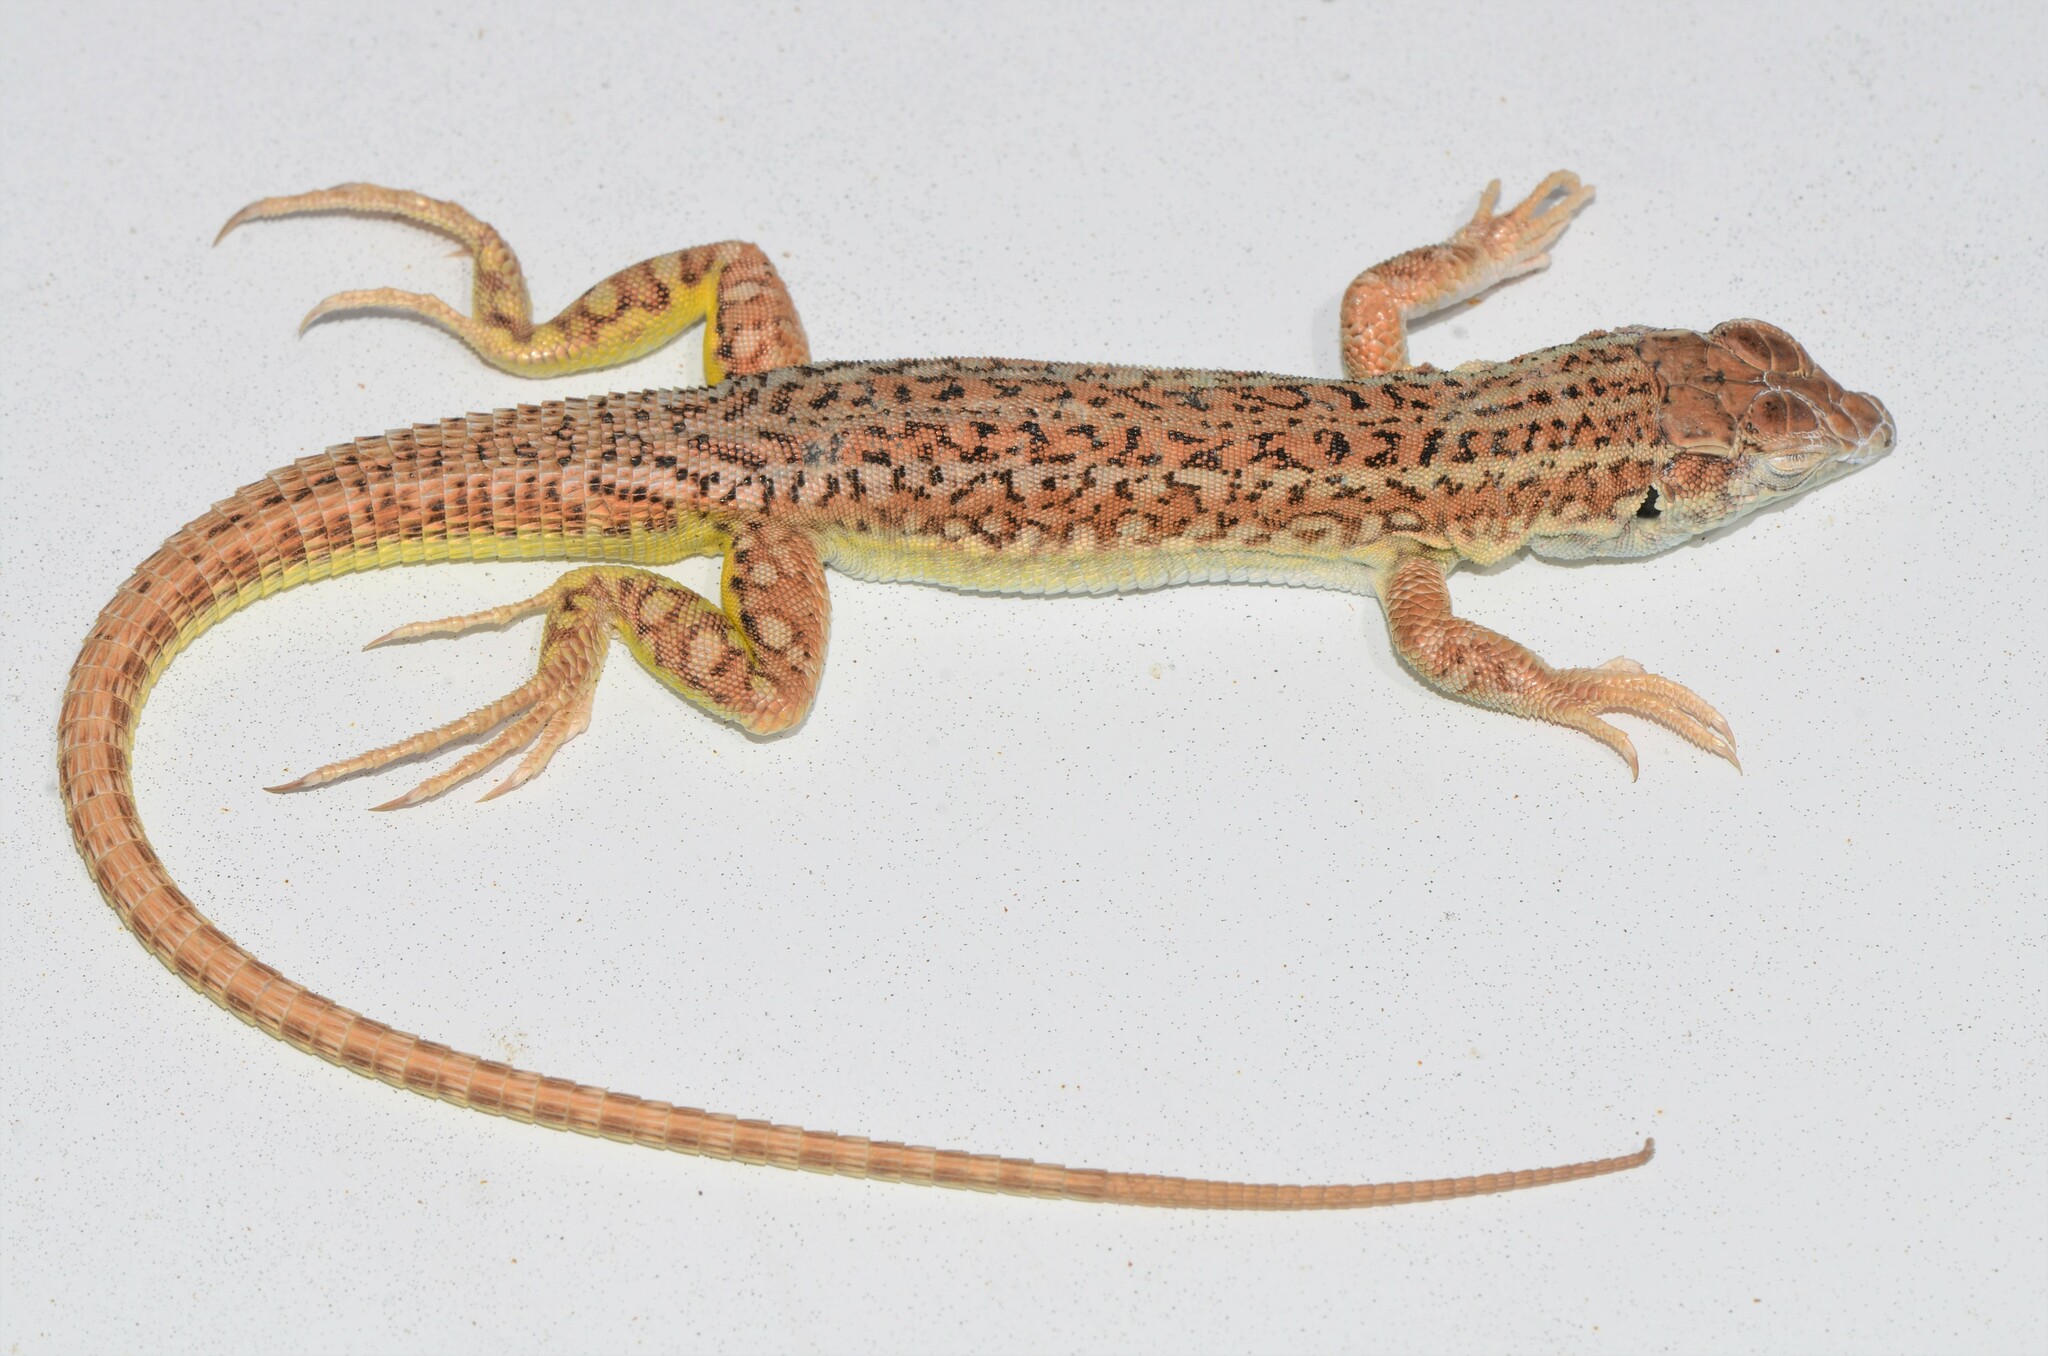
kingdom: Animalia
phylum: Chordata
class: Squamata
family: Lacertidae
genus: Meroles
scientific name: Meroles suborbitalis
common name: Spotted sand lizard
